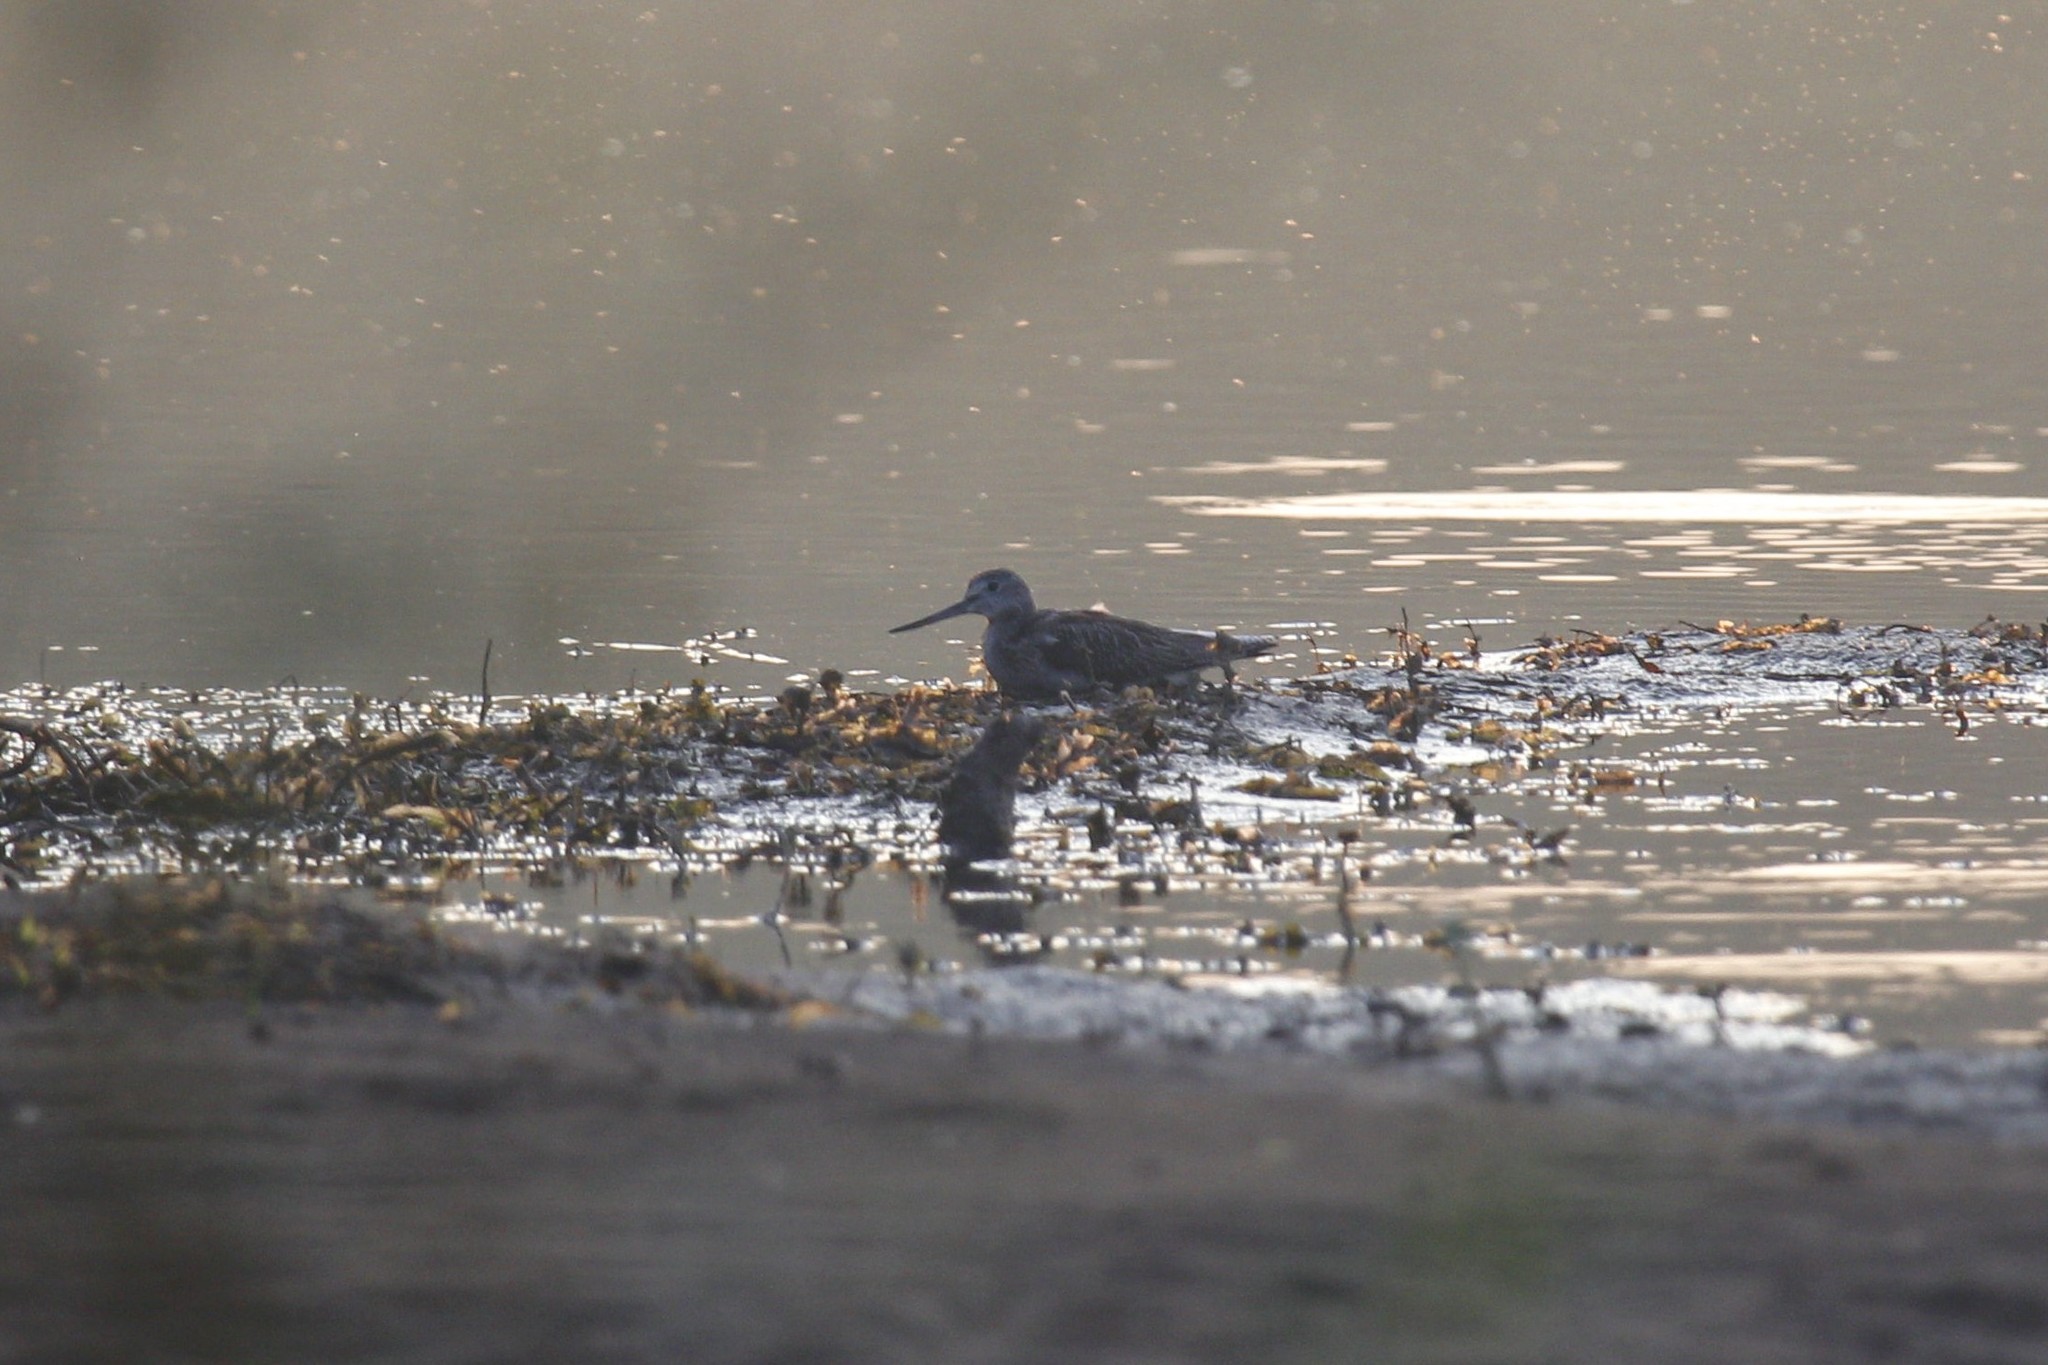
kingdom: Animalia
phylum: Chordata
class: Aves
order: Charadriiformes
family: Scolopacidae
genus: Tringa
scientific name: Tringa nebularia
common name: Common greenshank
